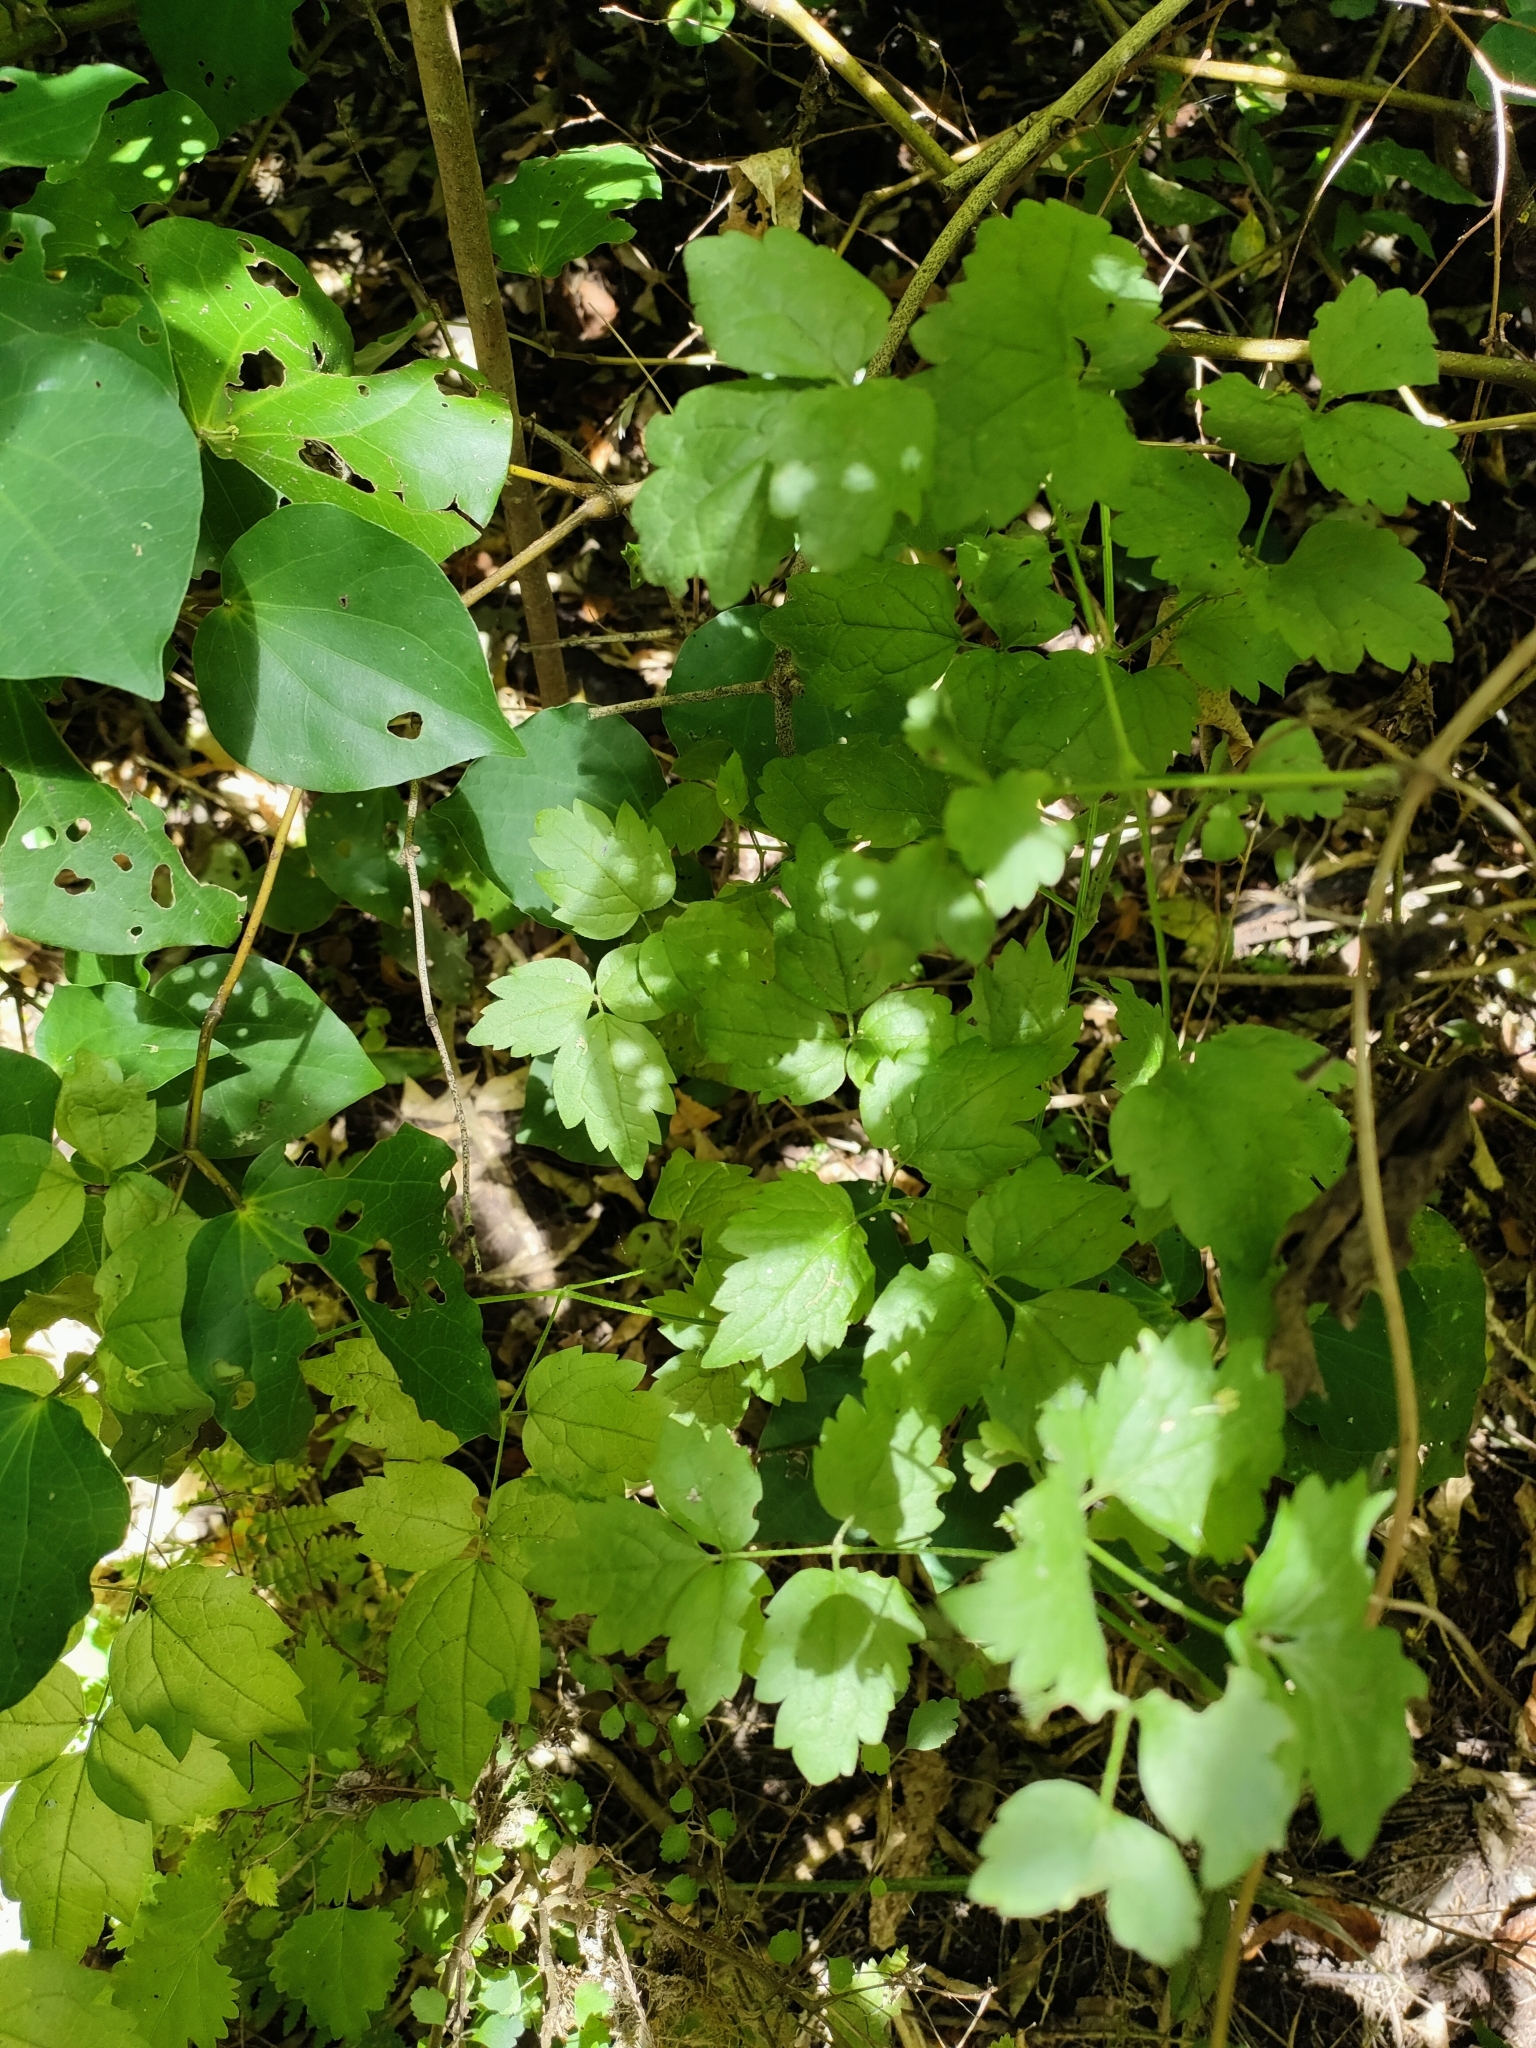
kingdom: Plantae
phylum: Tracheophyta
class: Magnoliopsida
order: Ranunculales
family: Ranunculaceae
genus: Clematis
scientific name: Clematis vitalba
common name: Evergreen clematis
